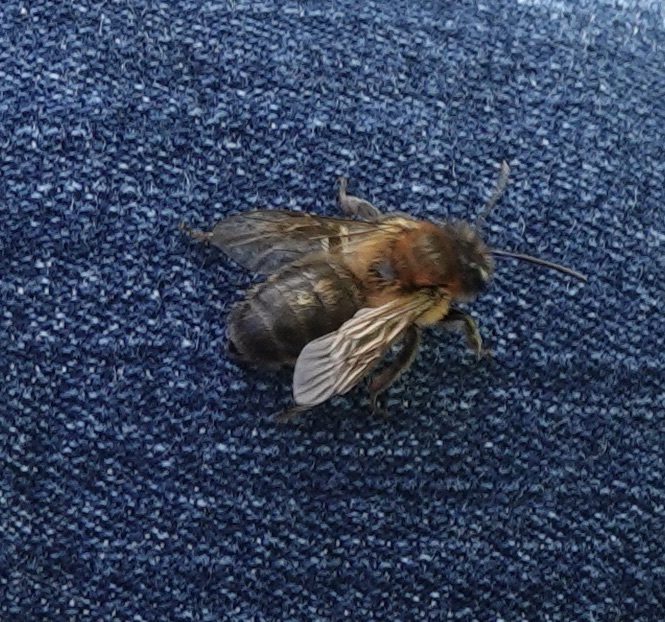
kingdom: Animalia
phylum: Arthropoda
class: Insecta
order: Hymenoptera
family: Andrenidae
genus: Andrena
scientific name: Andrena nigroaenea
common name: Buffish mining bee
